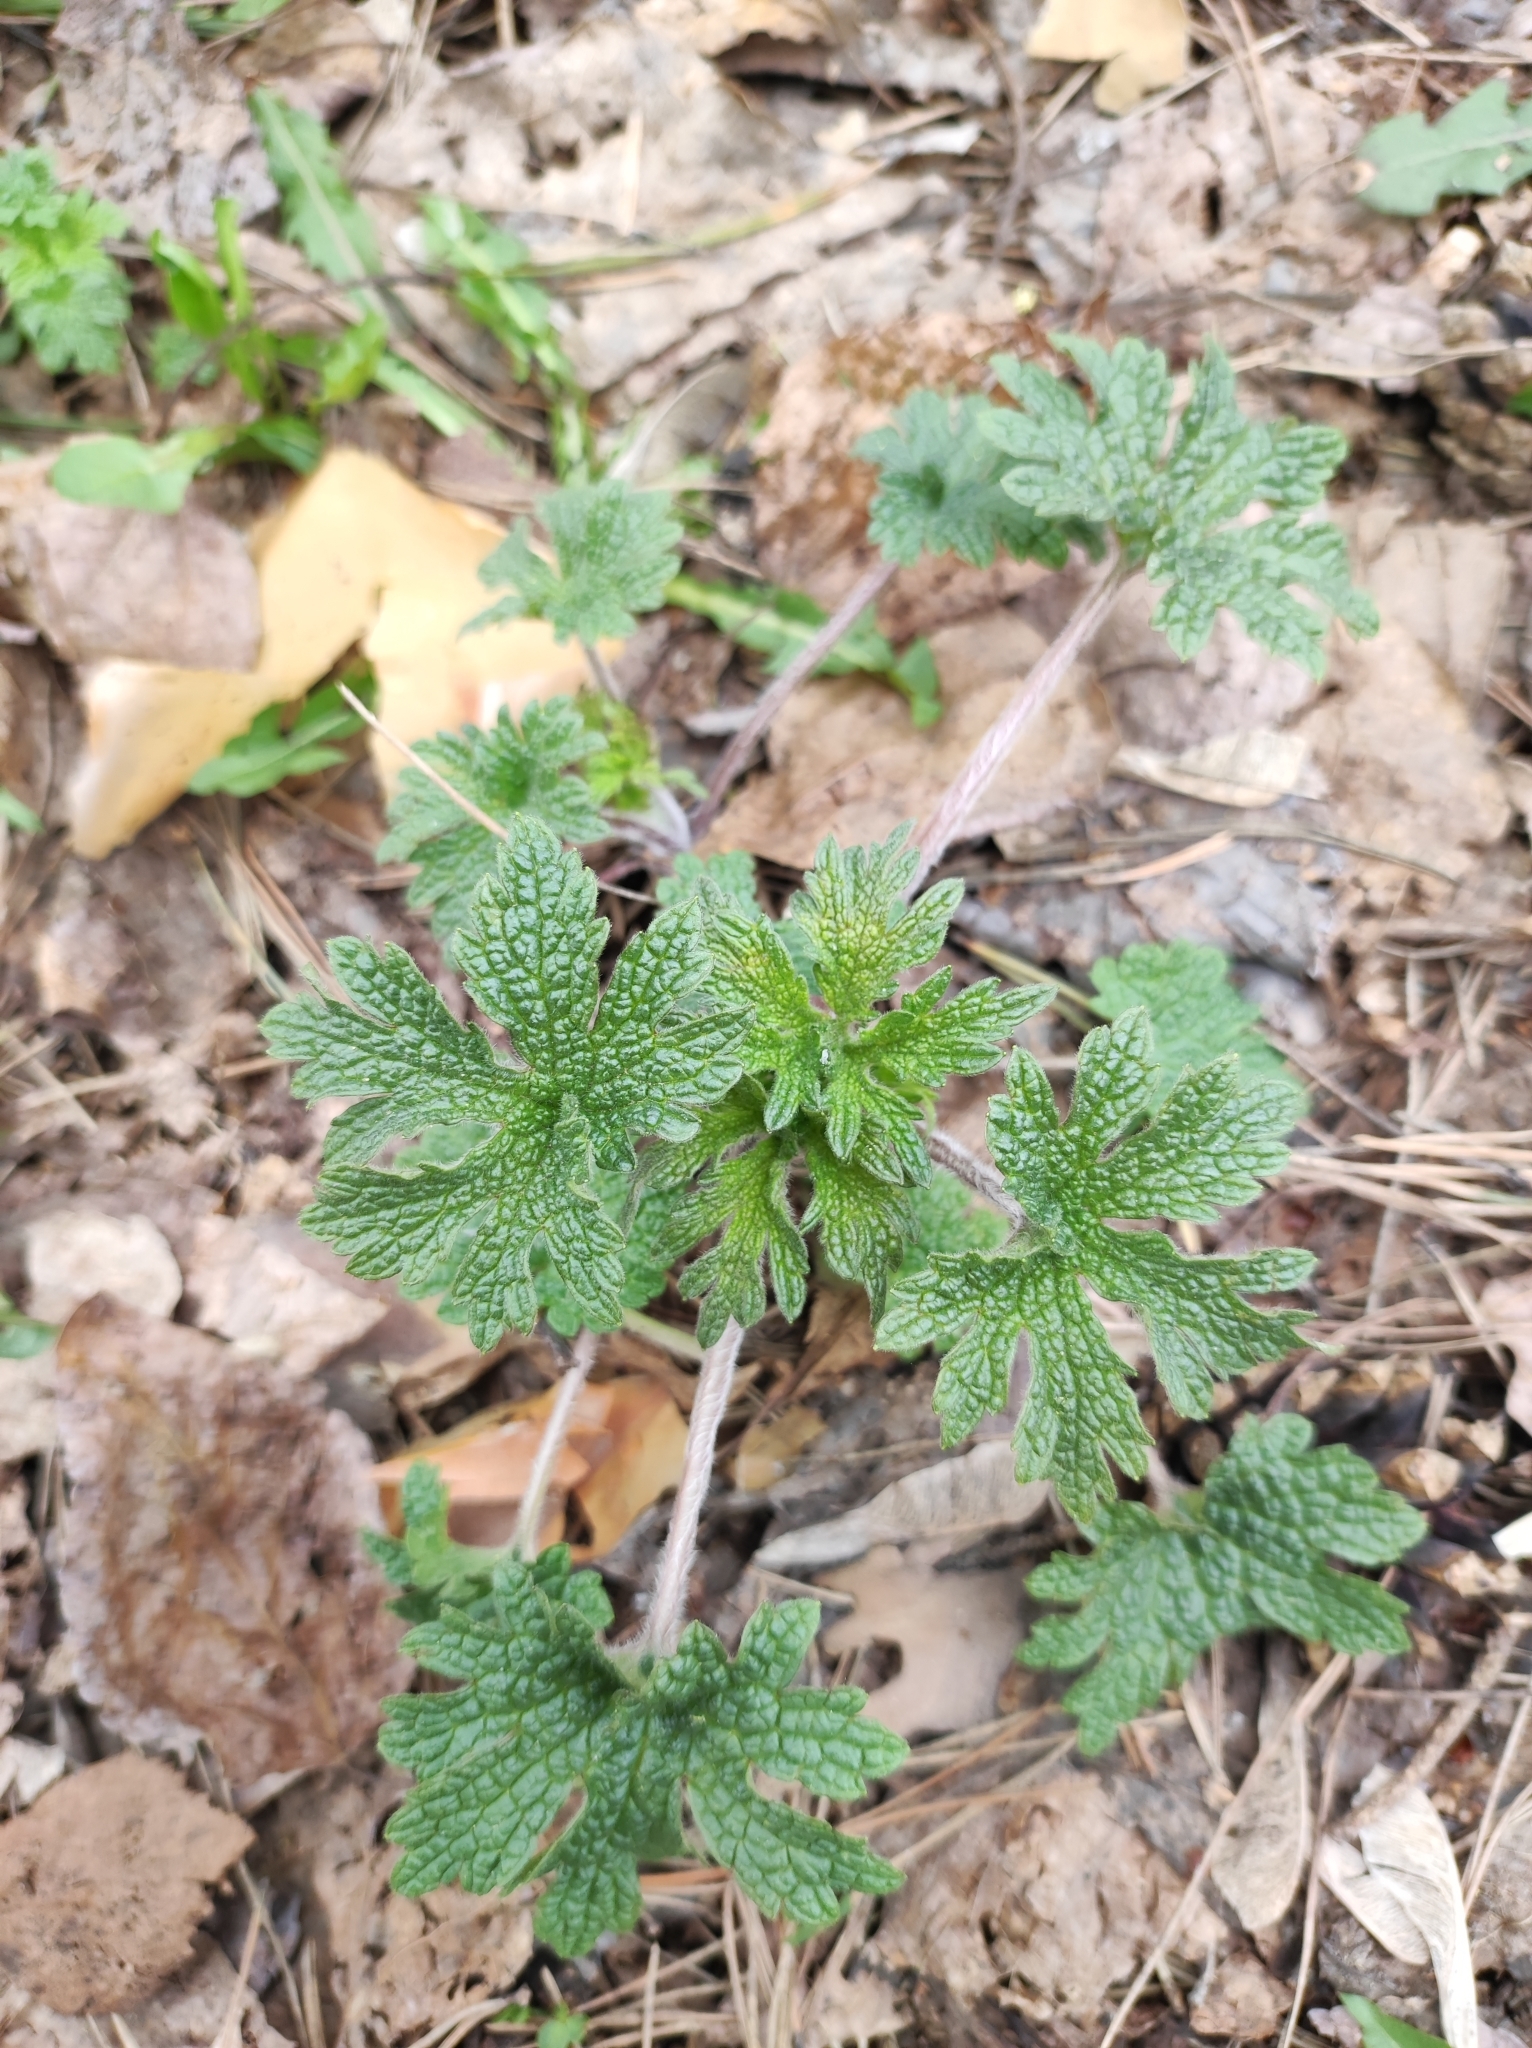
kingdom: Plantae
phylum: Tracheophyta
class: Magnoliopsida
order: Lamiales
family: Lamiaceae
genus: Leonurus
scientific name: Leonurus quinquelobatus
